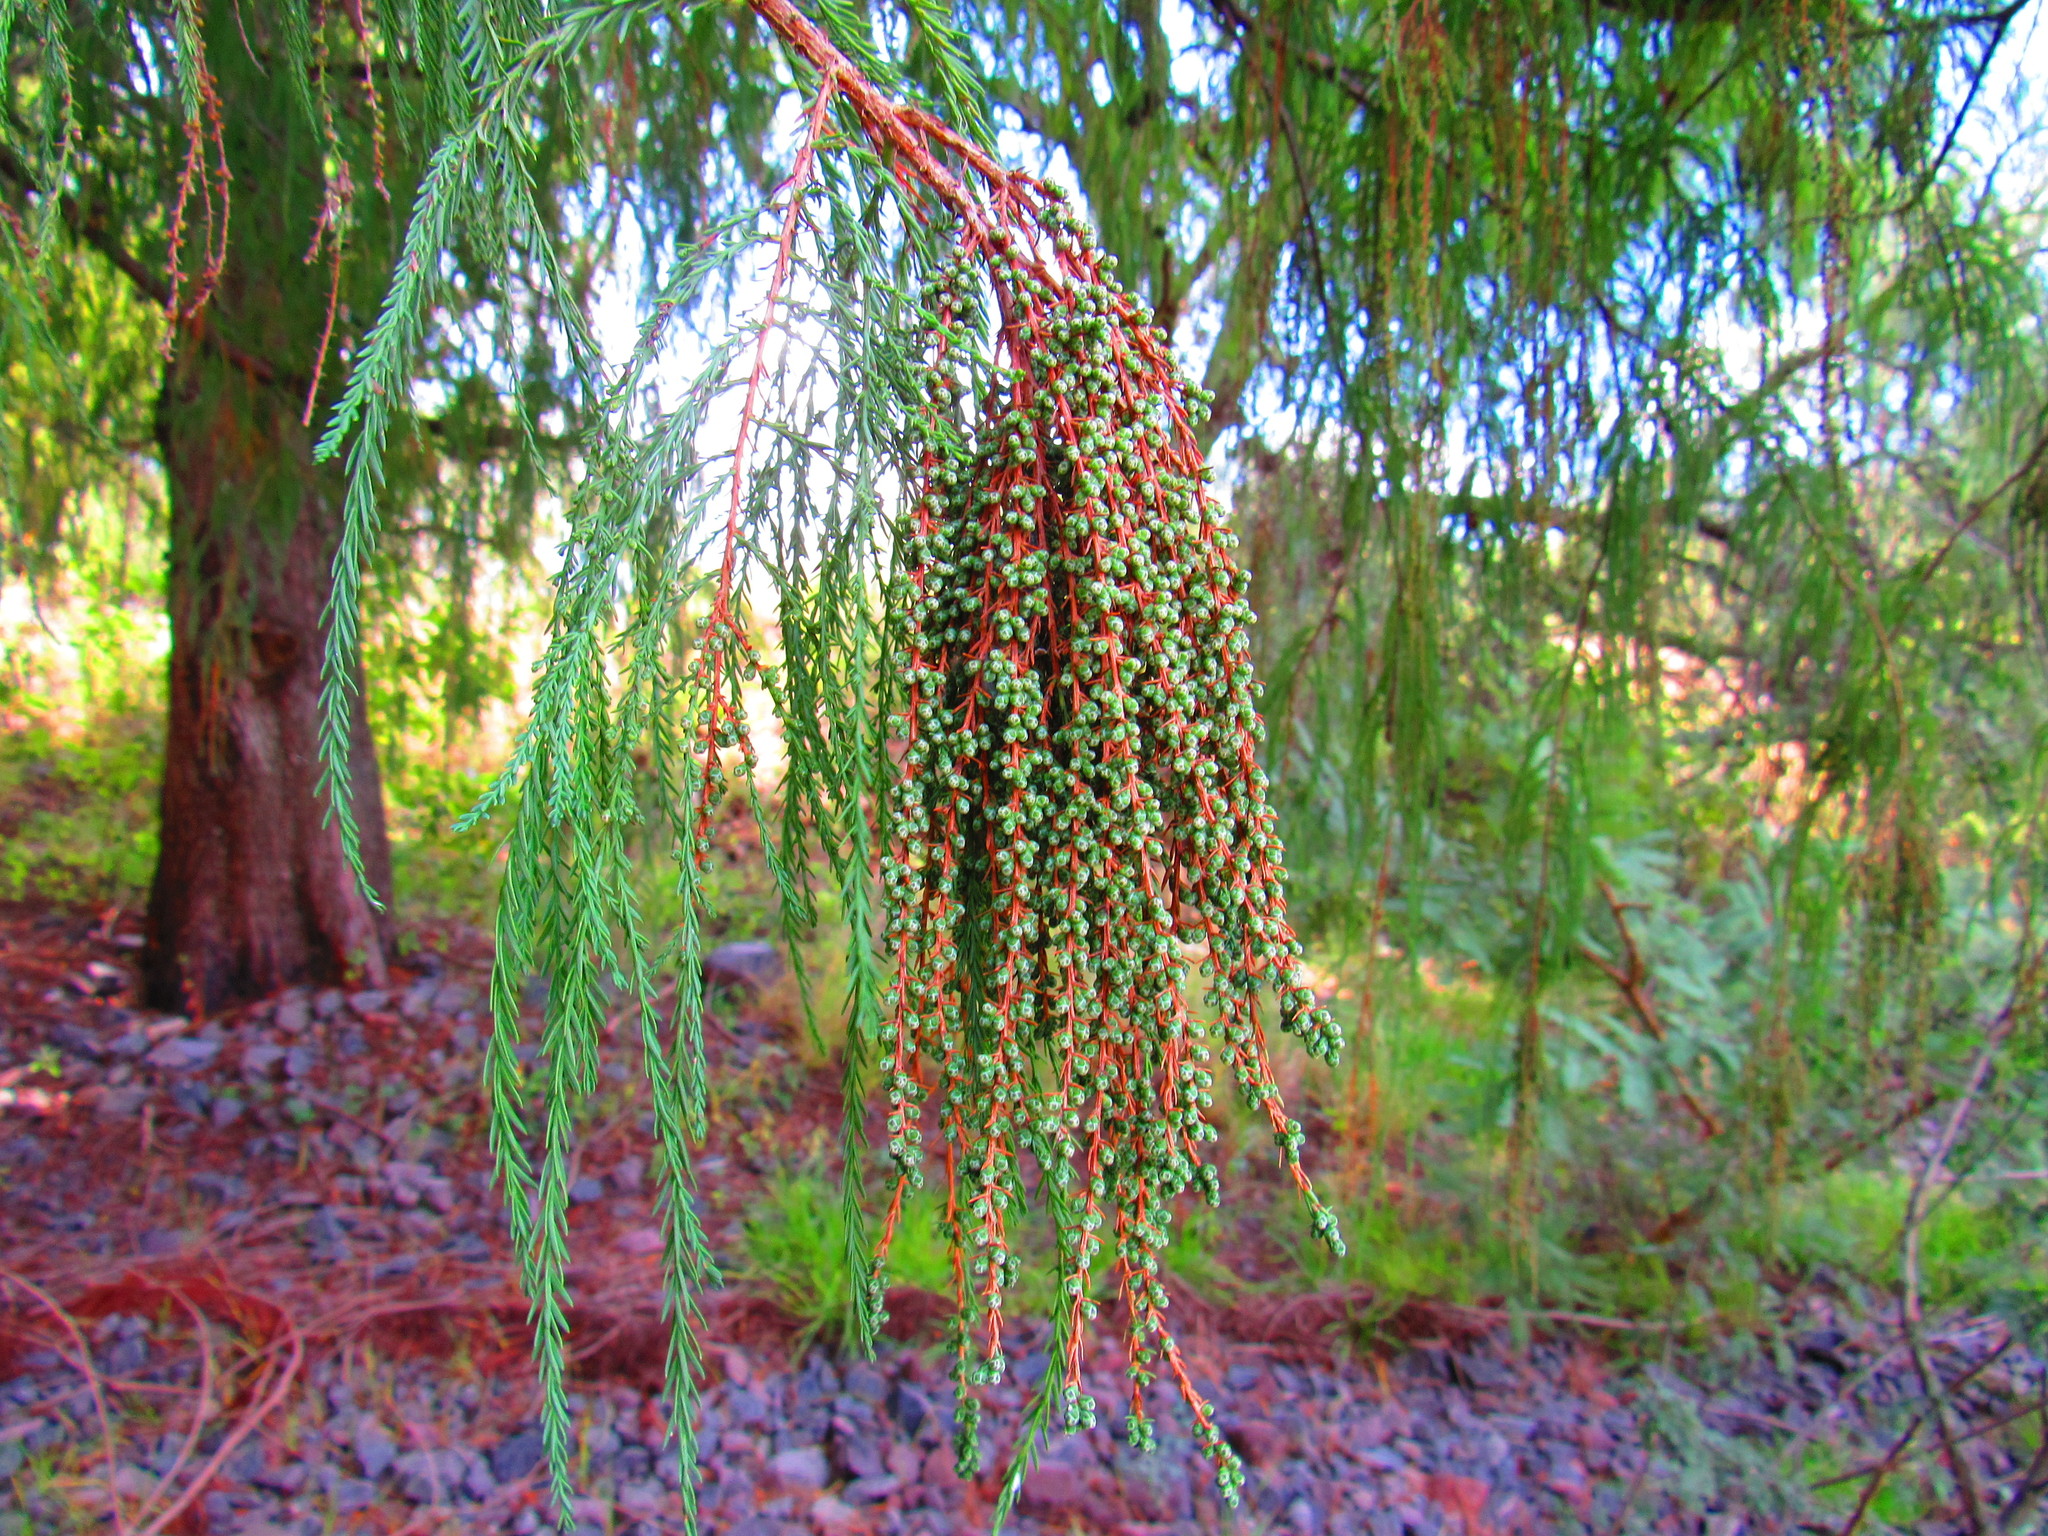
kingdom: Plantae
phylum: Tracheophyta
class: Pinopsida
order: Pinales
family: Cupressaceae
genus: Taxodium
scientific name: Taxodium mucronatum
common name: Montezume bald cypress
